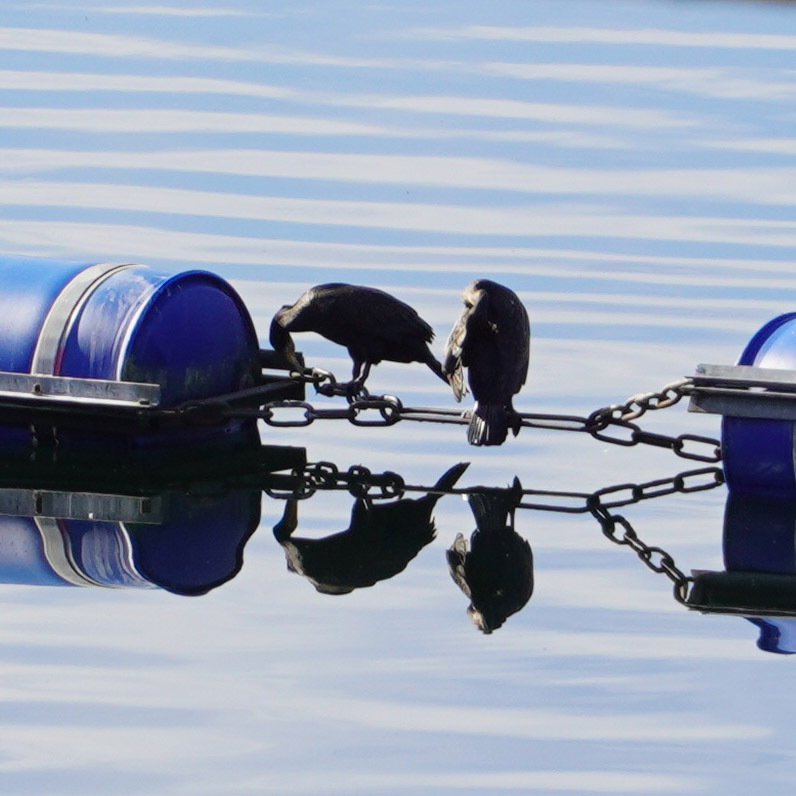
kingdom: Animalia
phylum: Chordata
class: Aves
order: Suliformes
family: Phalacrocoracidae
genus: Phalacrocorax
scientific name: Phalacrocorax carbo
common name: Great cormorant
